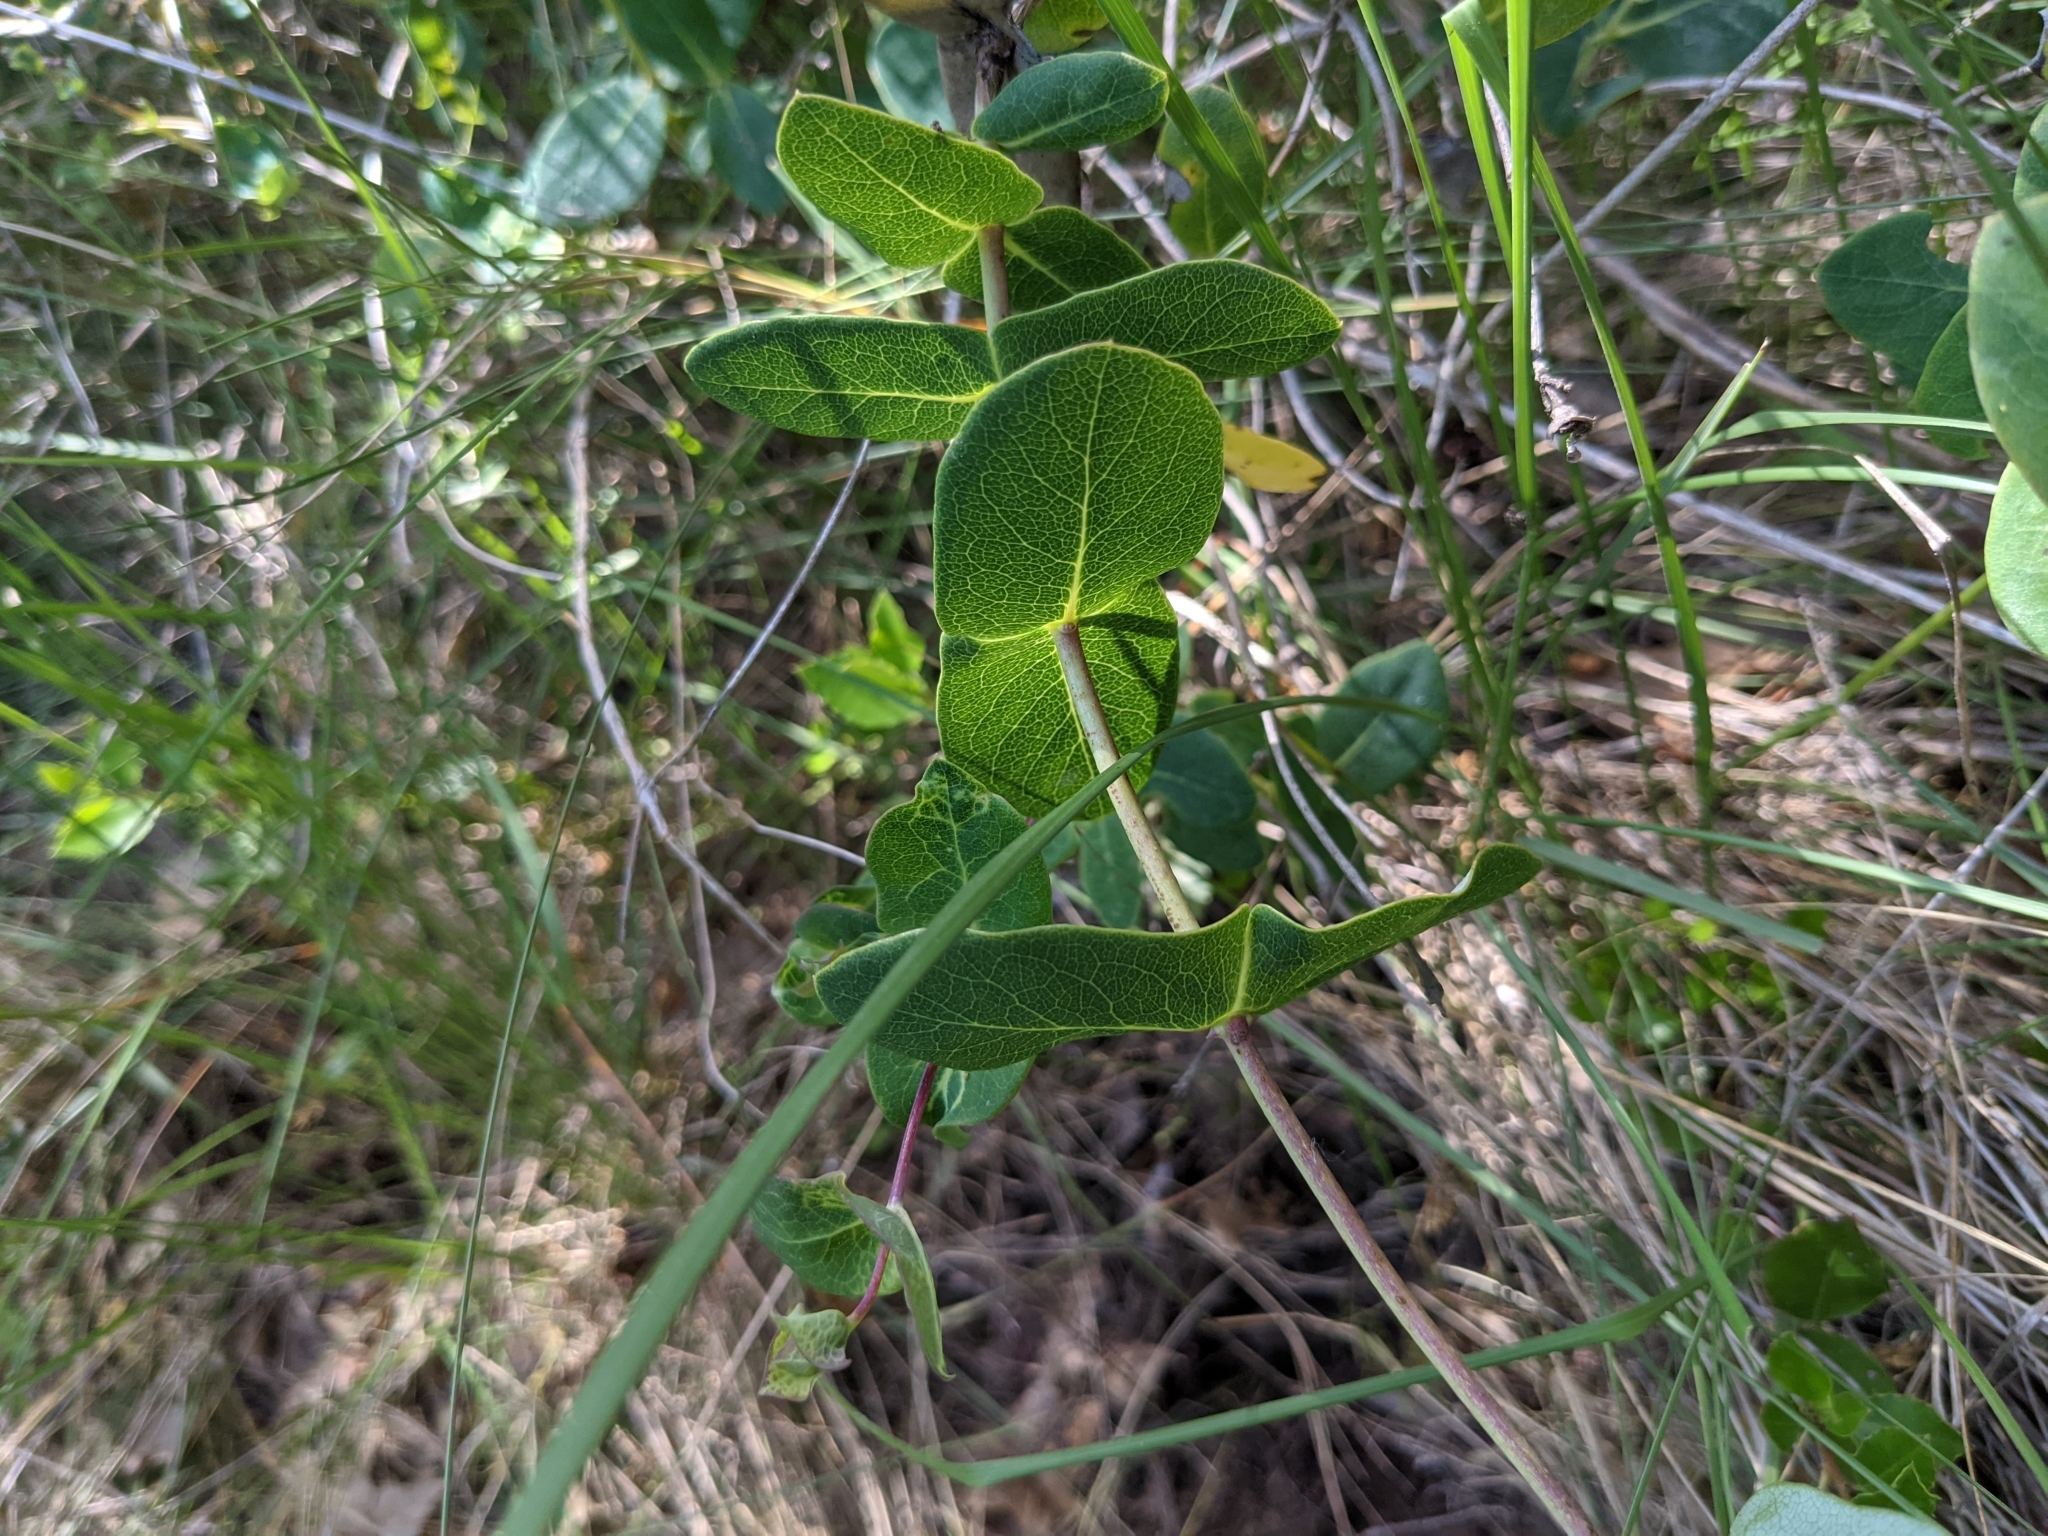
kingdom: Plantae
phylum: Tracheophyta
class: Magnoliopsida
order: Dipsacales
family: Caprifoliaceae
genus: Lonicera
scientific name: Lonicera implexa
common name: Minorca honeysuckle
